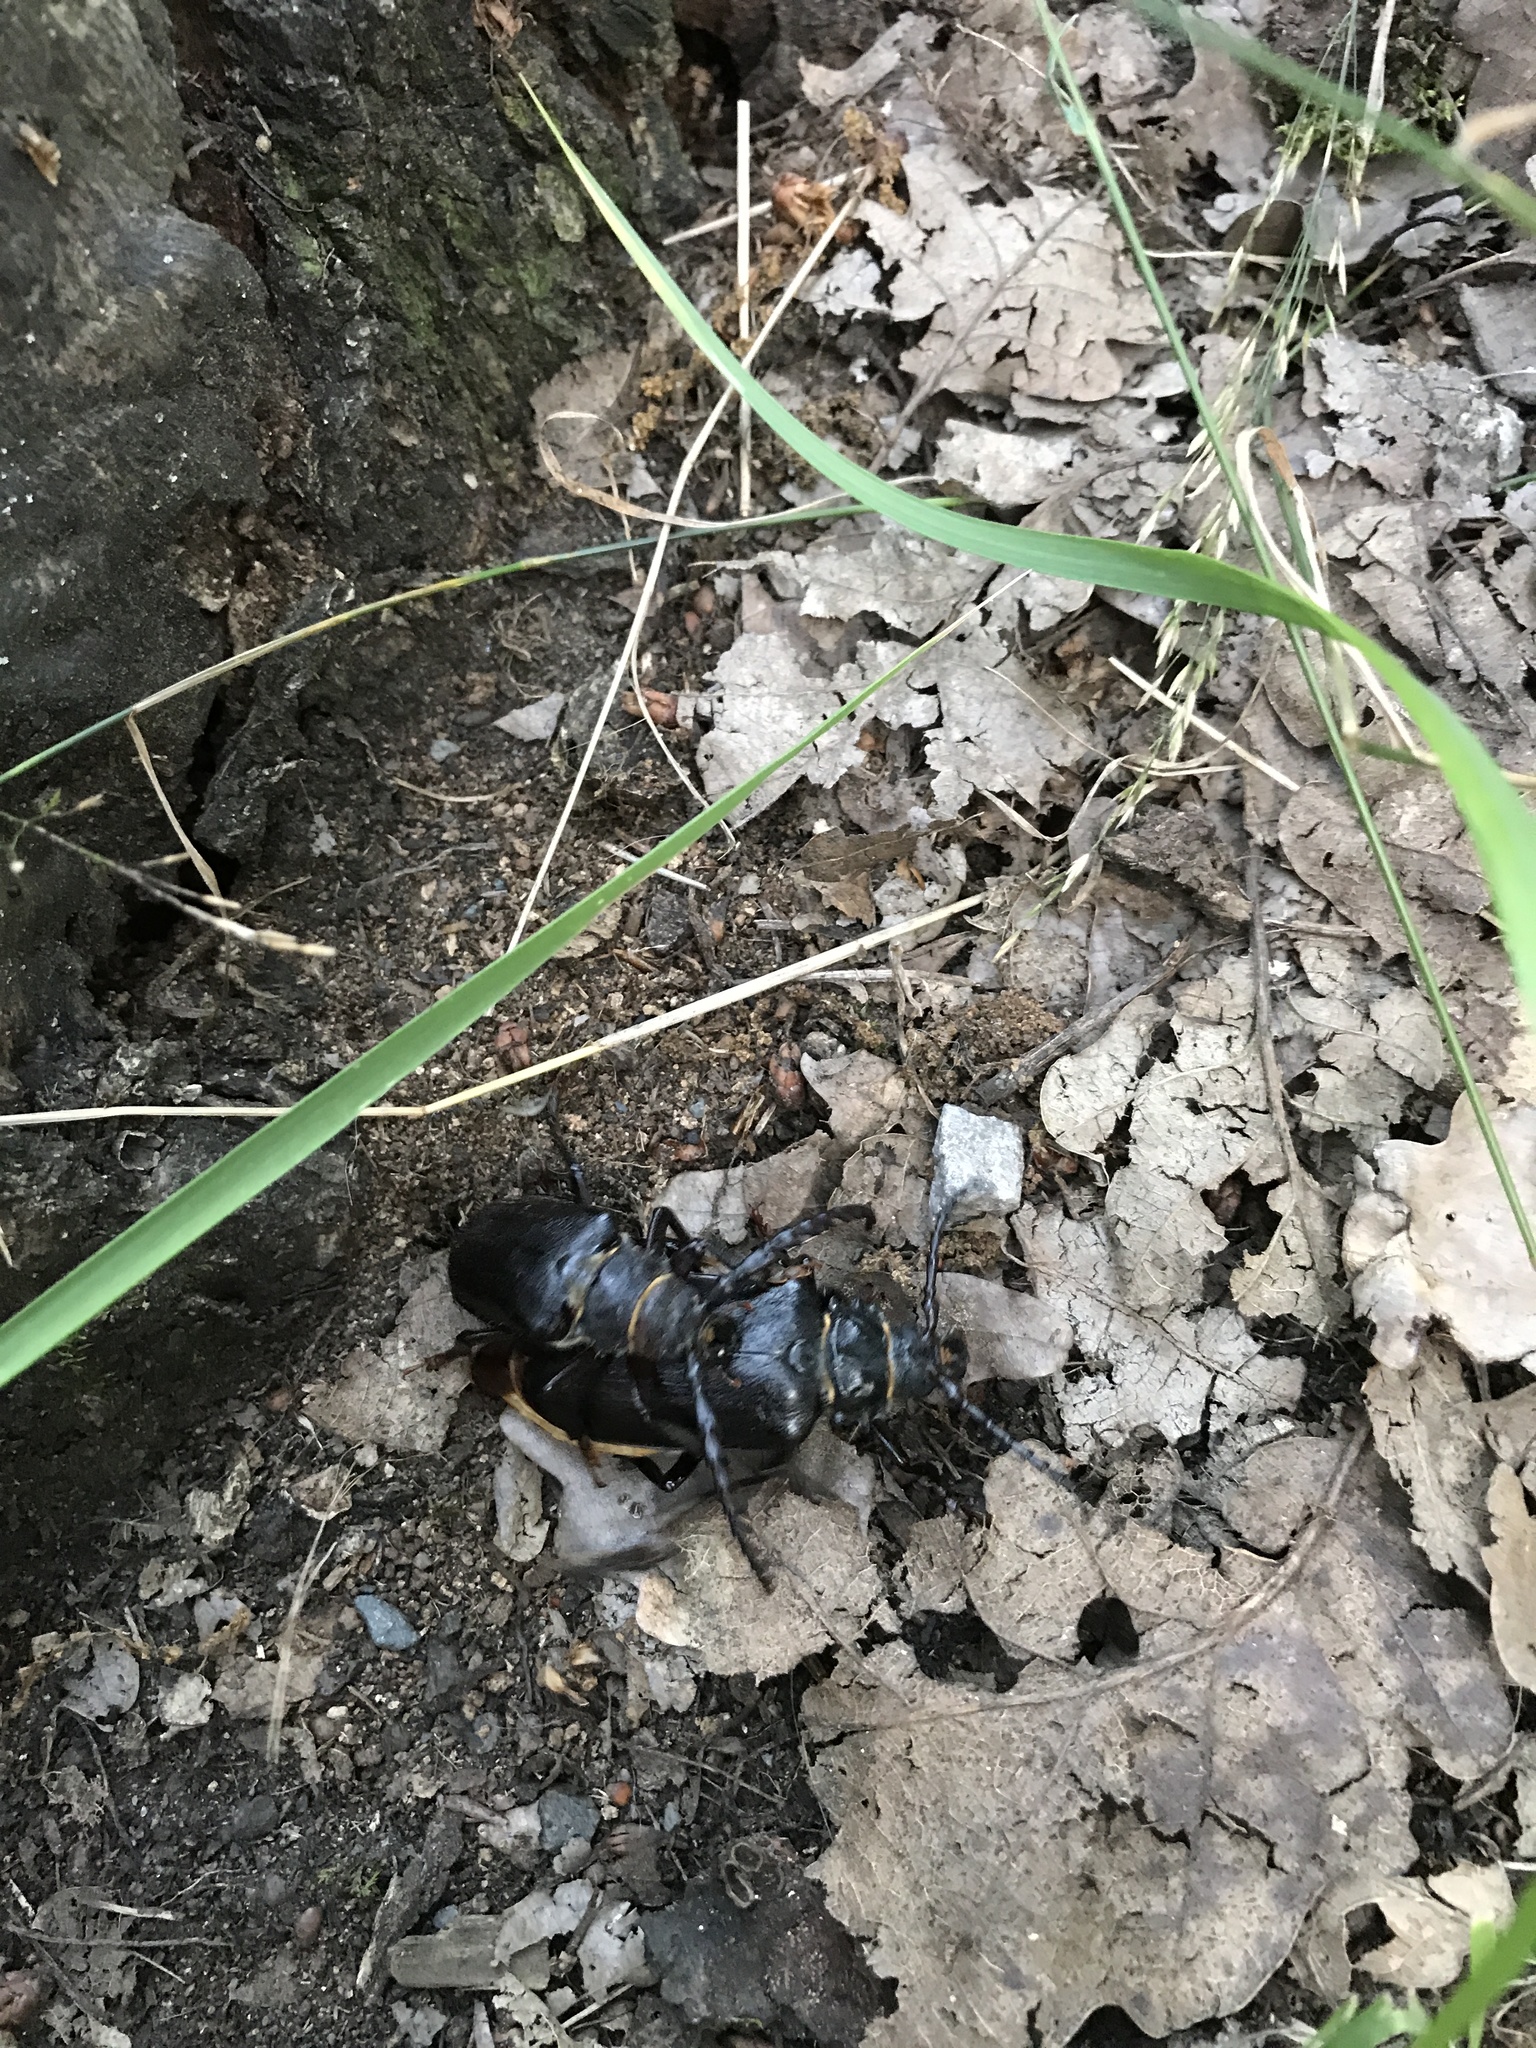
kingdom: Animalia
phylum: Arthropoda
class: Insecta
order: Coleoptera
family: Cerambycidae
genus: Prionus
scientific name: Prionus coriarius
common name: Tanner beetle
